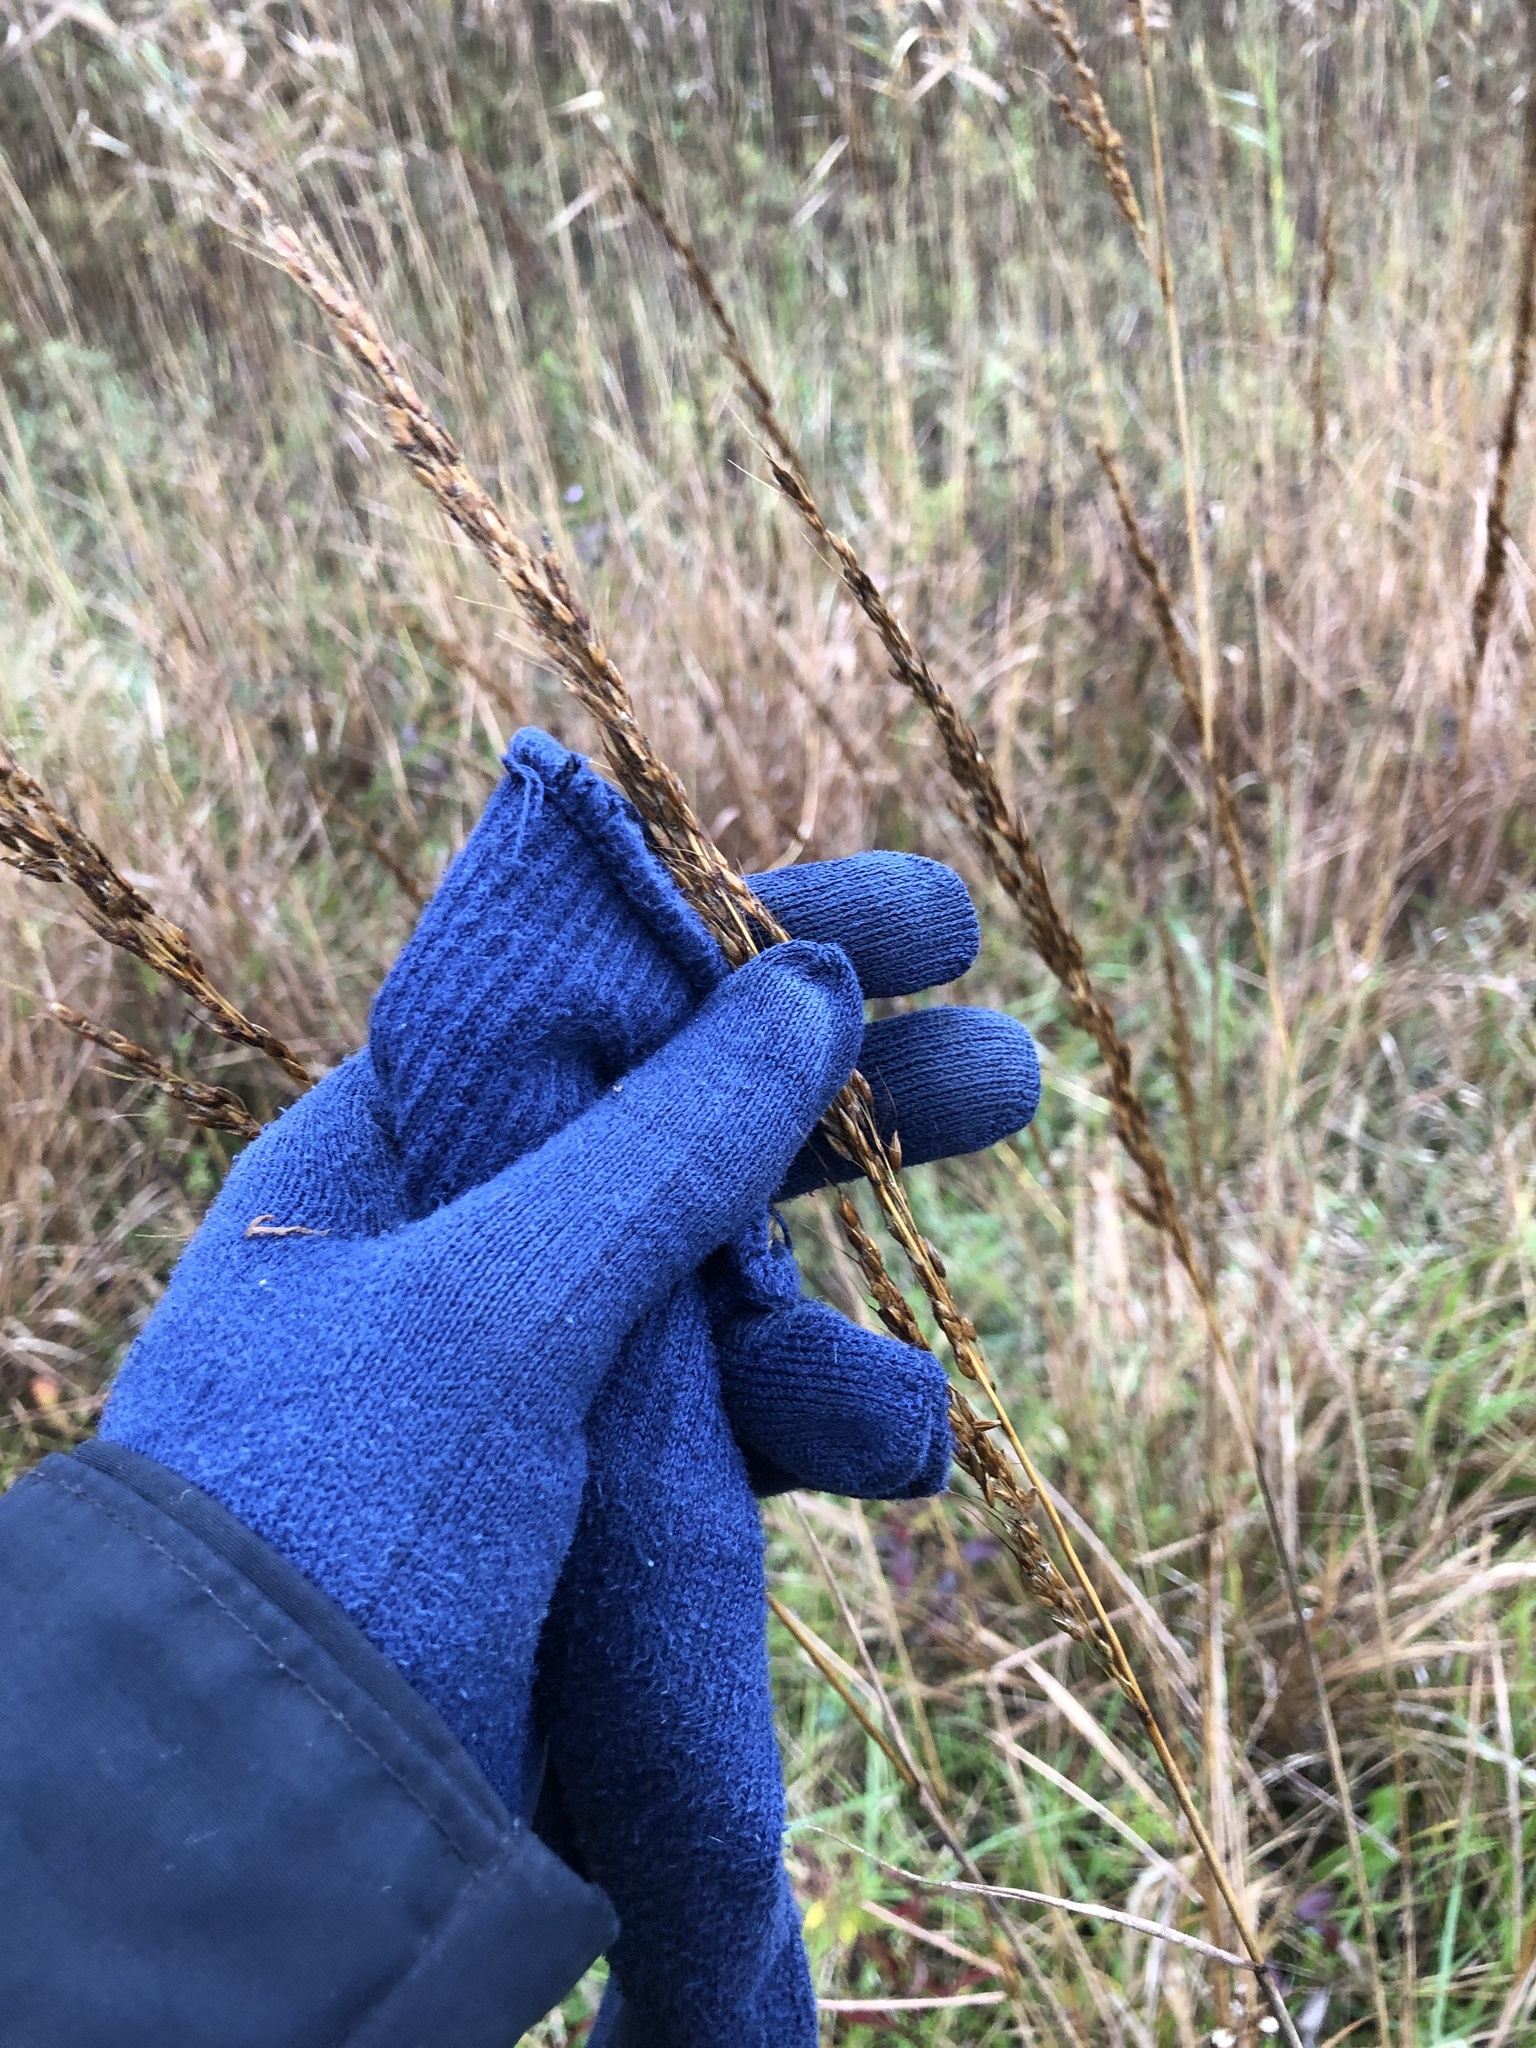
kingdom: Plantae
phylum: Tracheophyta
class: Liliopsida
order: Poales
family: Poaceae
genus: Sorghastrum
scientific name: Sorghastrum nutans
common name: Indian grass
